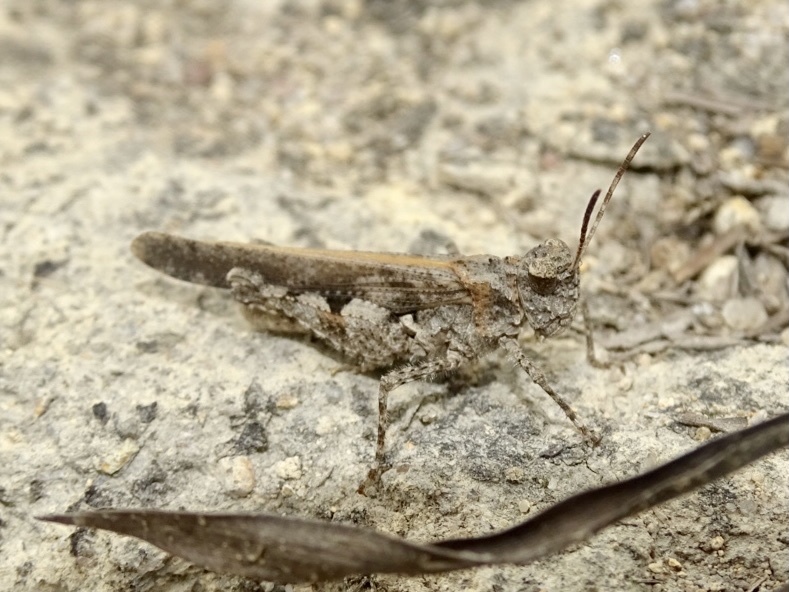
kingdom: Animalia
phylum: Arthropoda
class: Insecta
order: Orthoptera
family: Acrididae
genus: Trilophidia
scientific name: Trilophidia annulata
